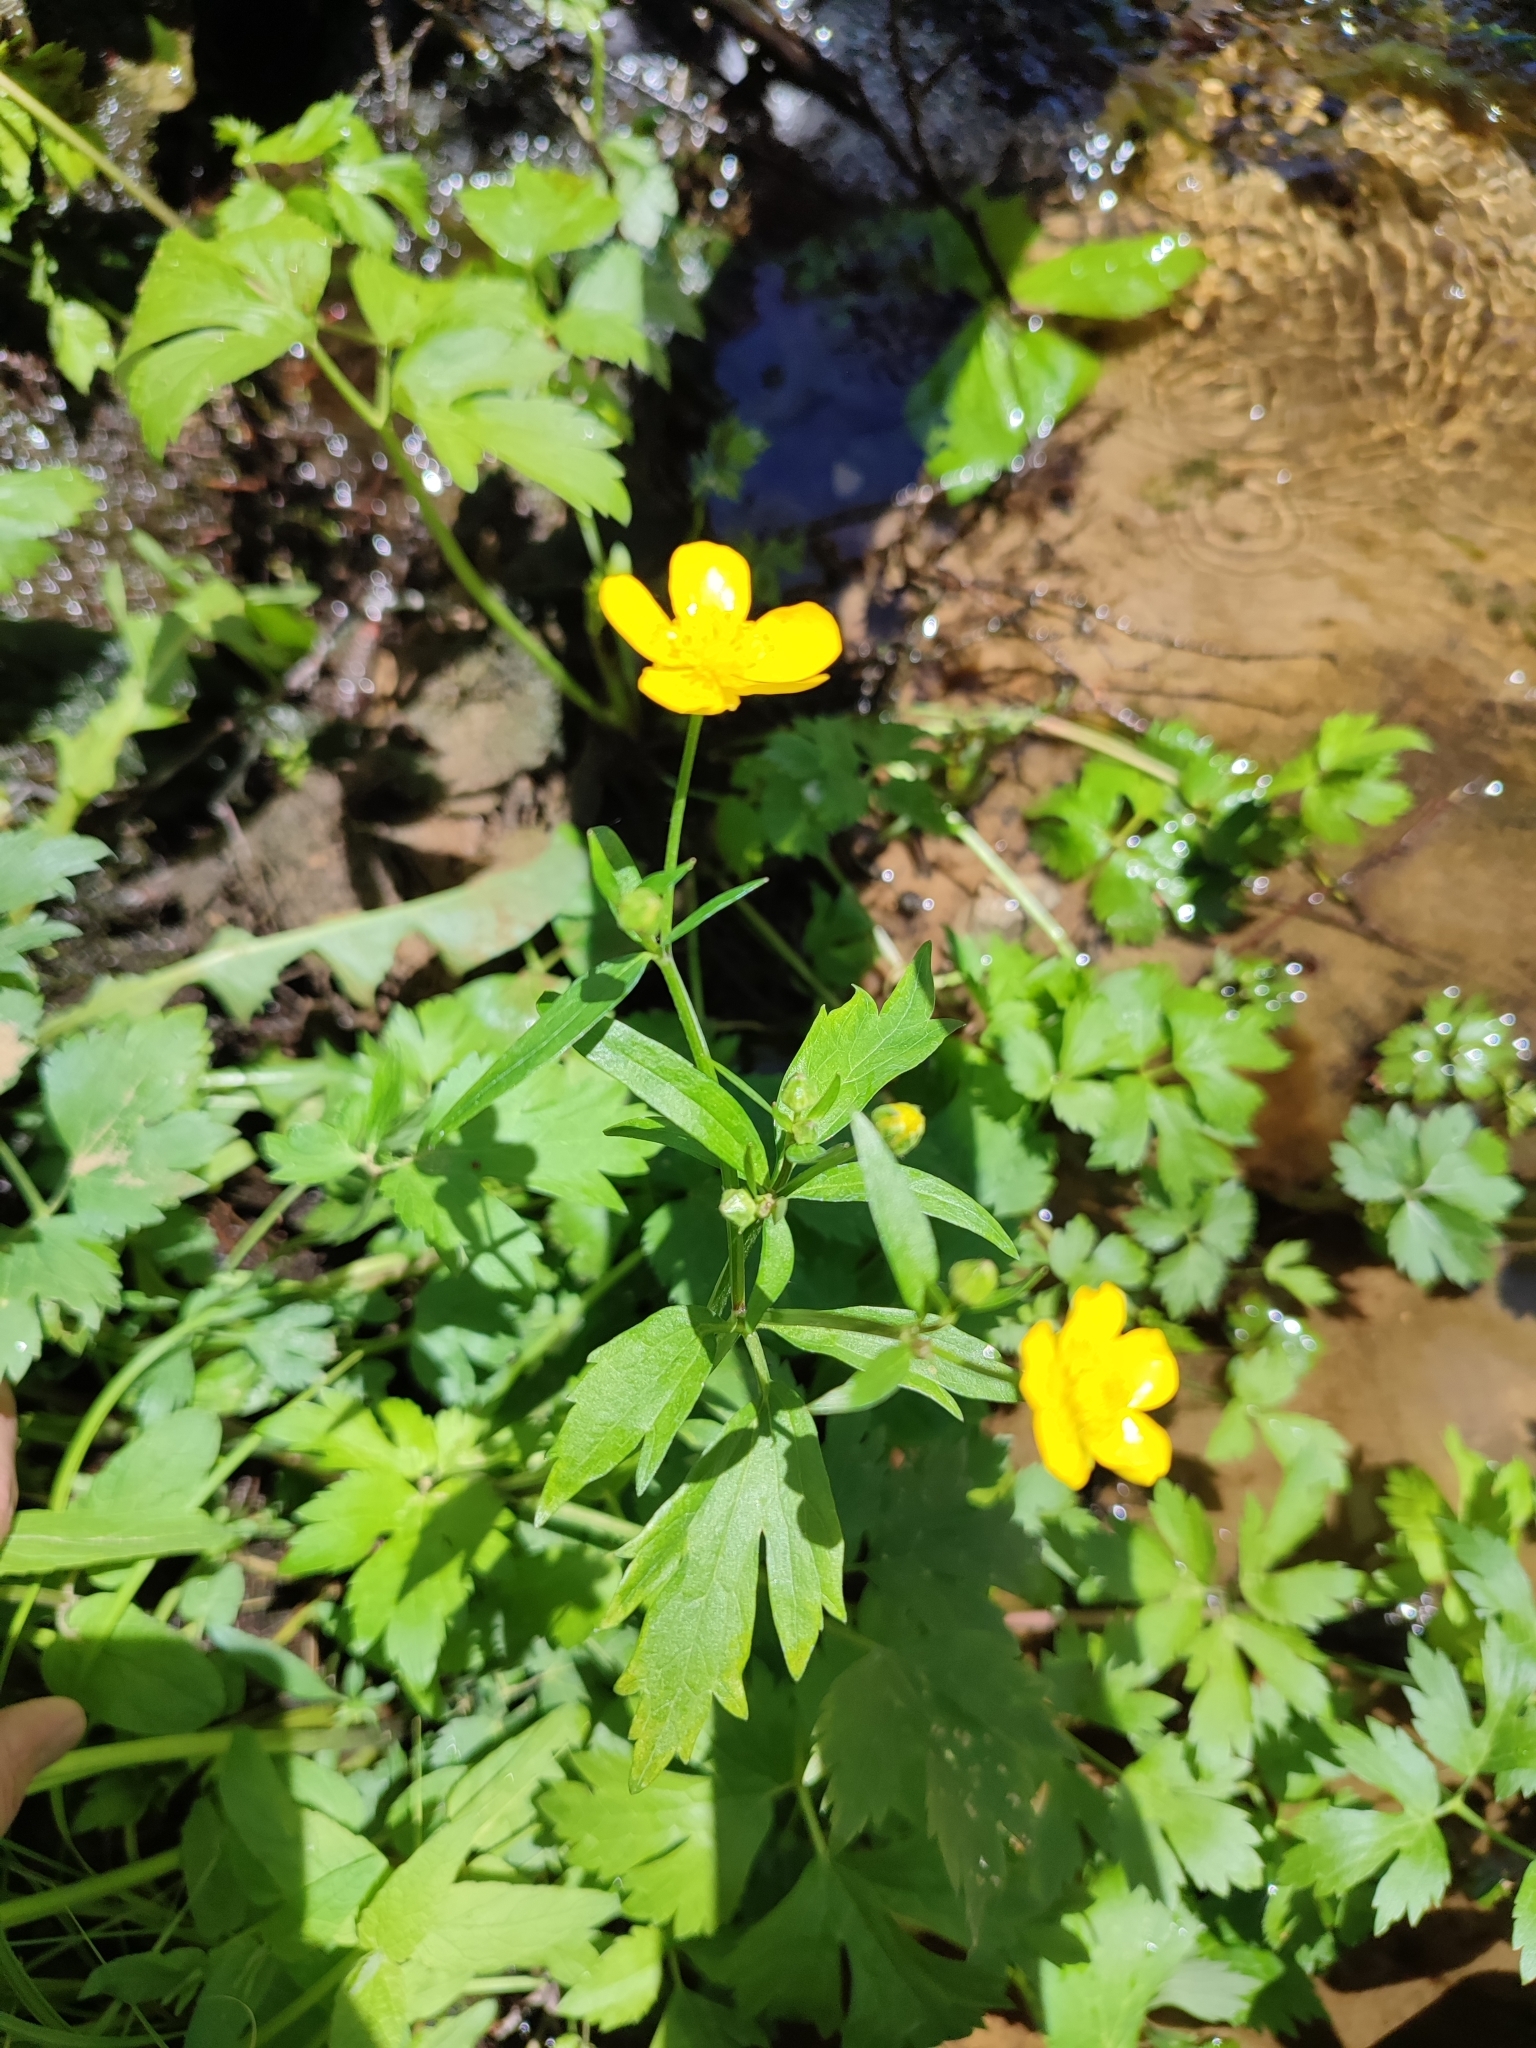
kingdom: Plantae
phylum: Tracheophyta
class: Magnoliopsida
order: Ranunculales
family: Ranunculaceae
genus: Ranunculus
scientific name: Ranunculus repens
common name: Creeping buttercup
